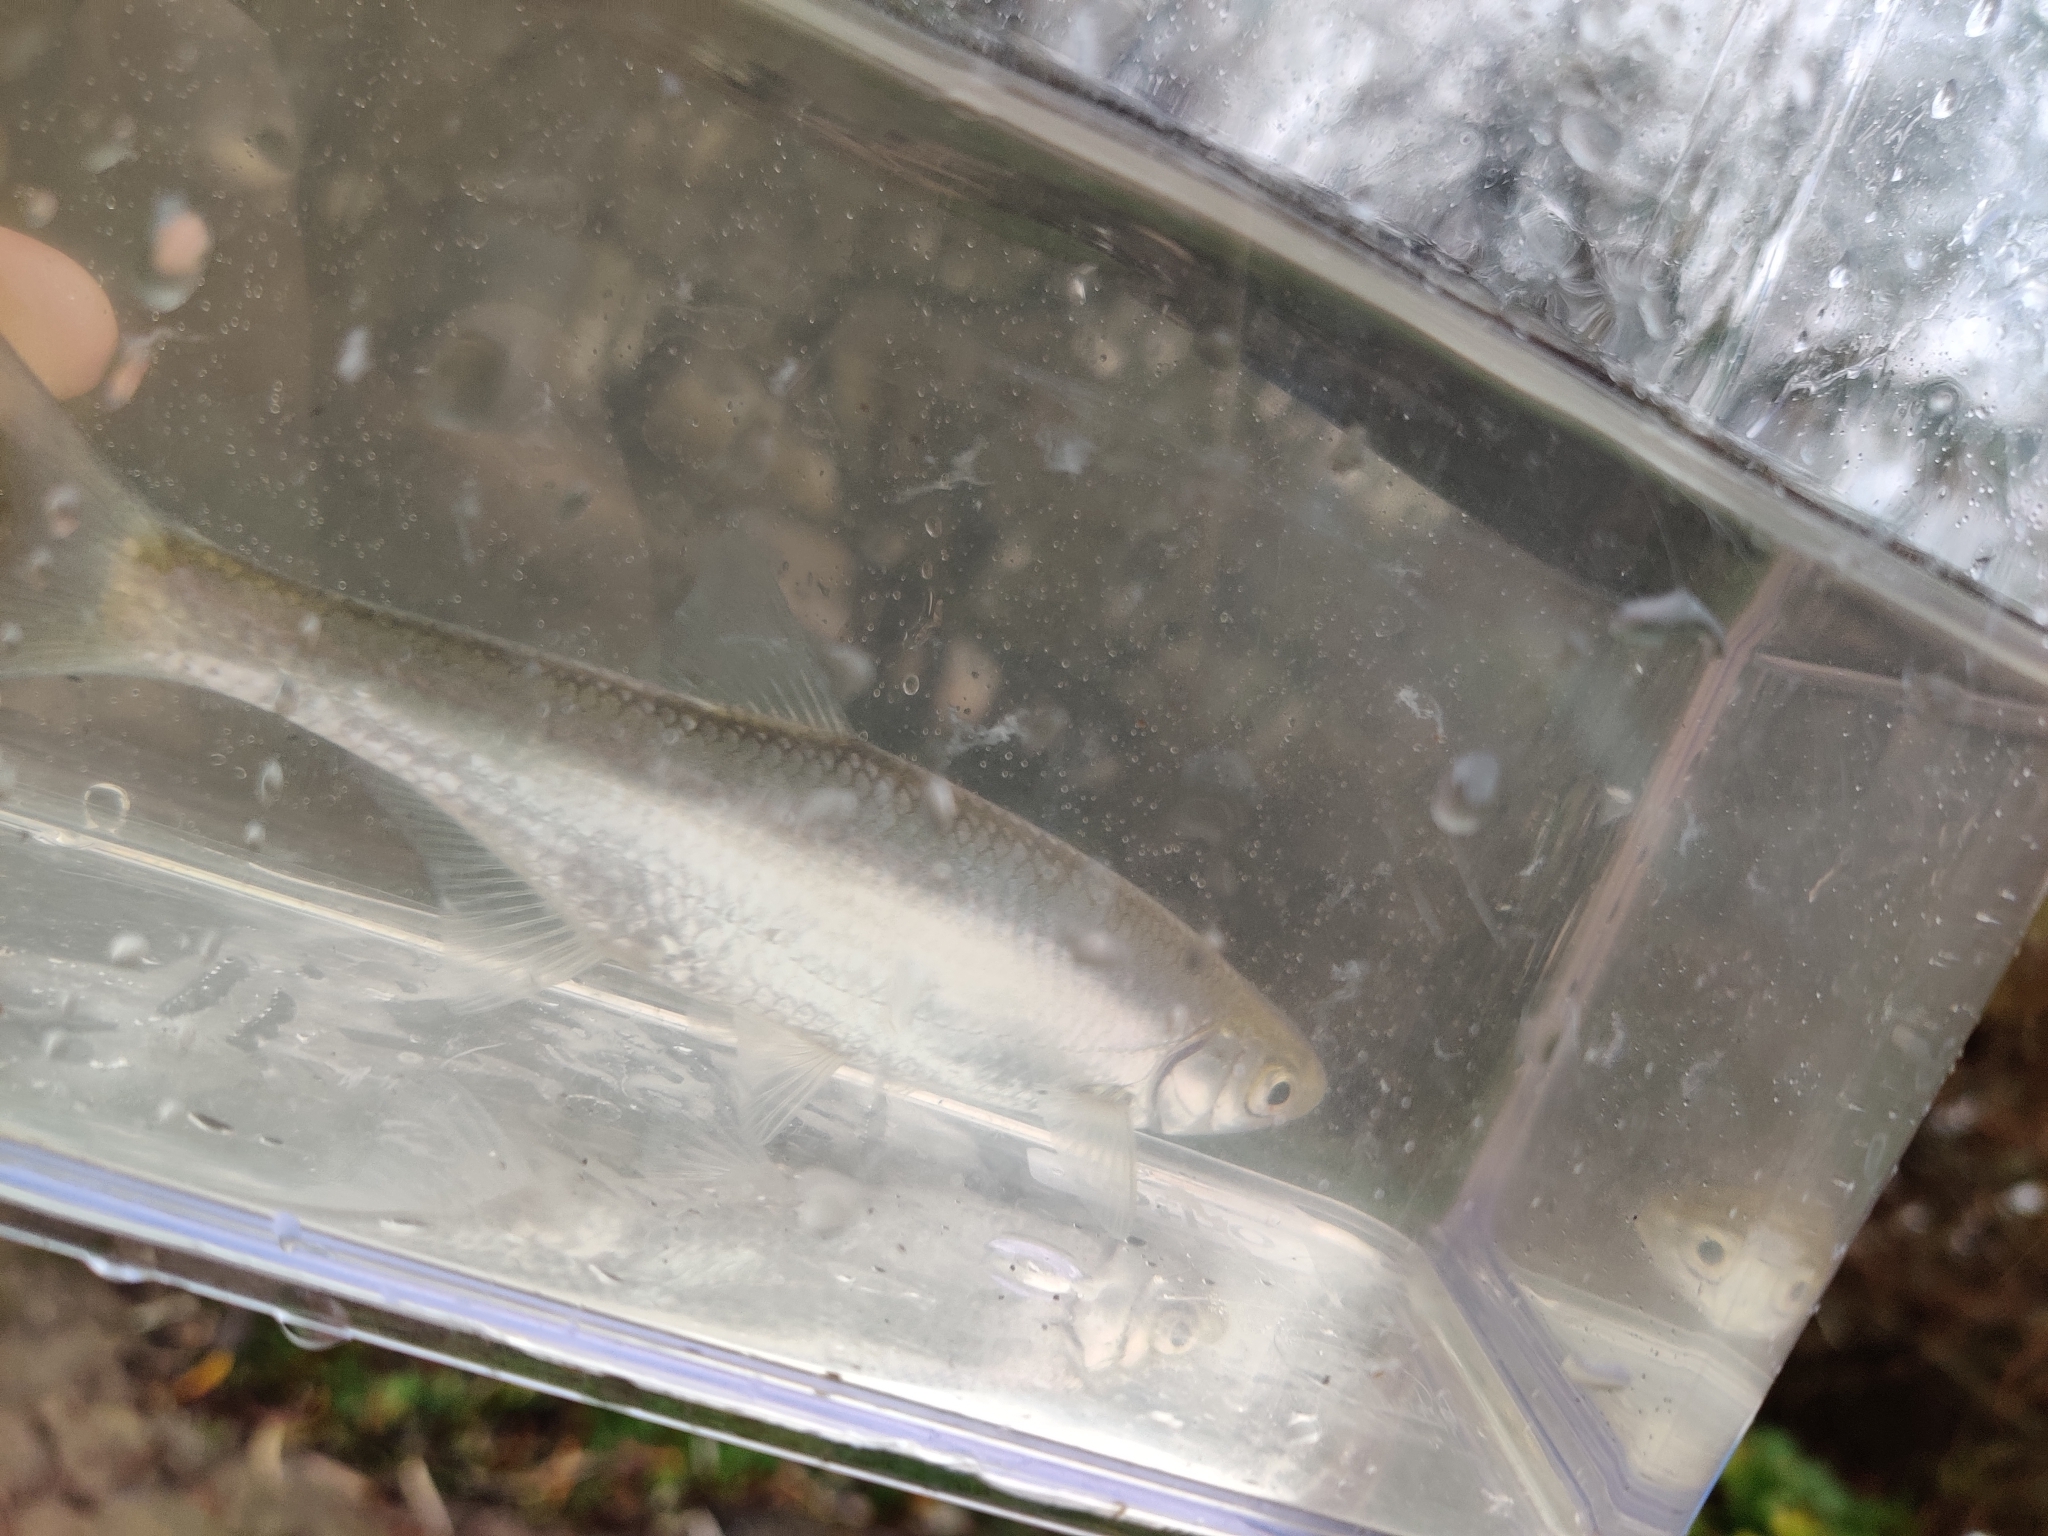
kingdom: Animalia
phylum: Chordata
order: Cypriniformes
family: Cyprinidae
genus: Alburnus
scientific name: Alburnus alburnus
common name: Bleak
